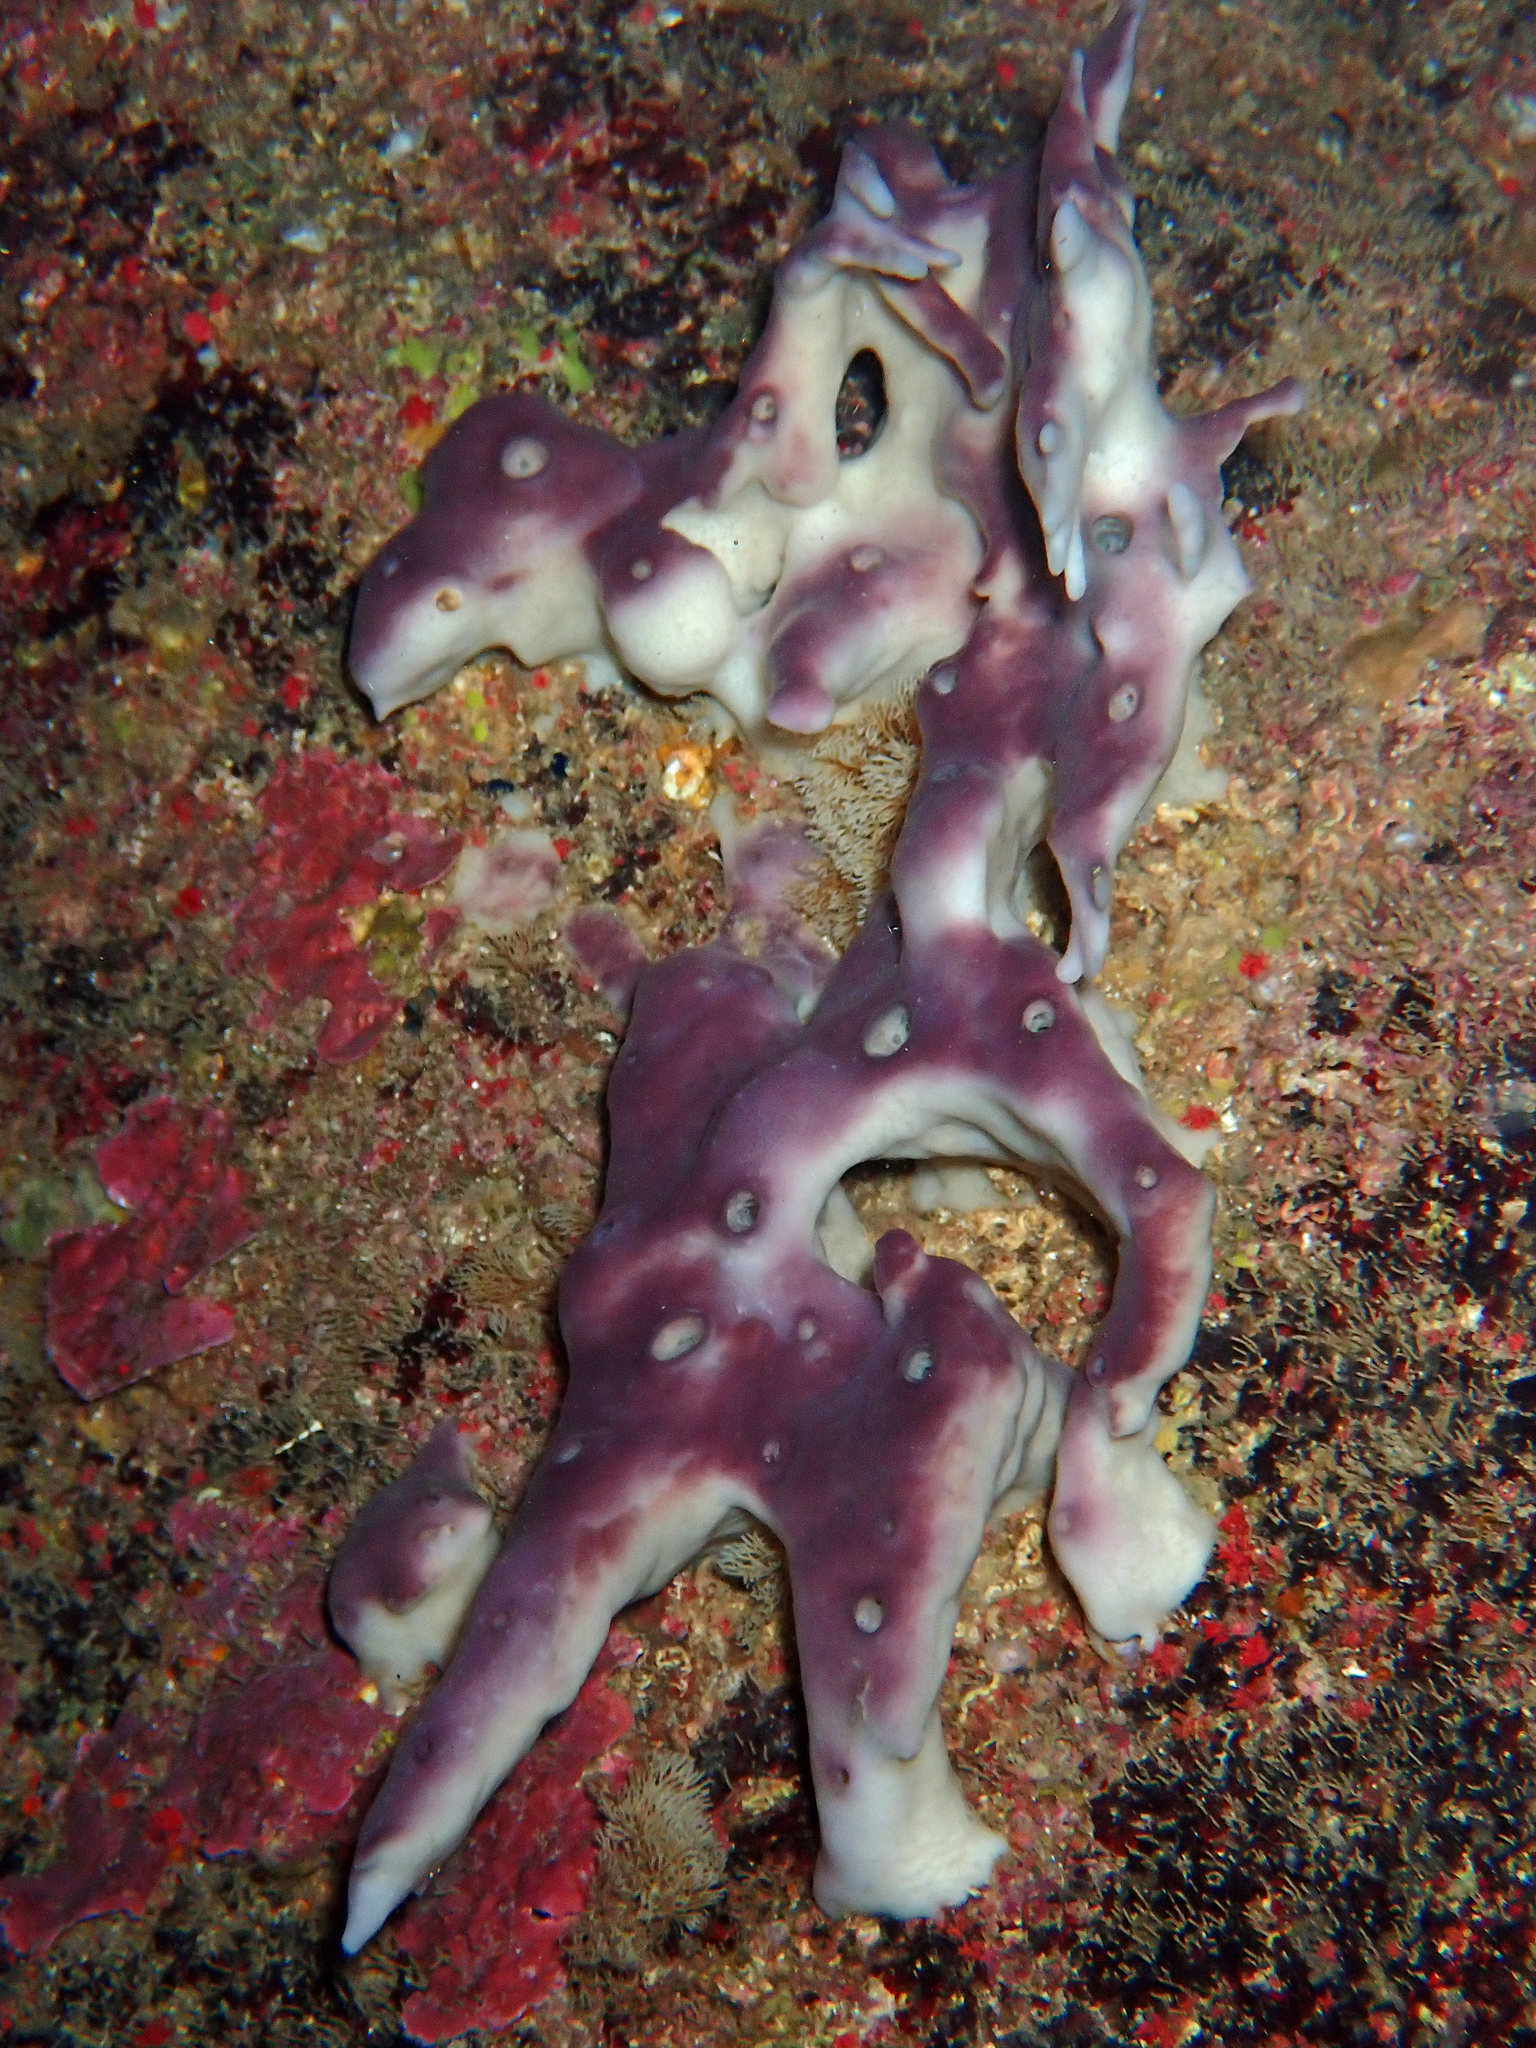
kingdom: Animalia
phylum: Porifera
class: Demospongiae
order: Haplosclerida
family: Petrosiidae
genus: Petrosia
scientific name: Petrosia ficiformis
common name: Stony sponge
